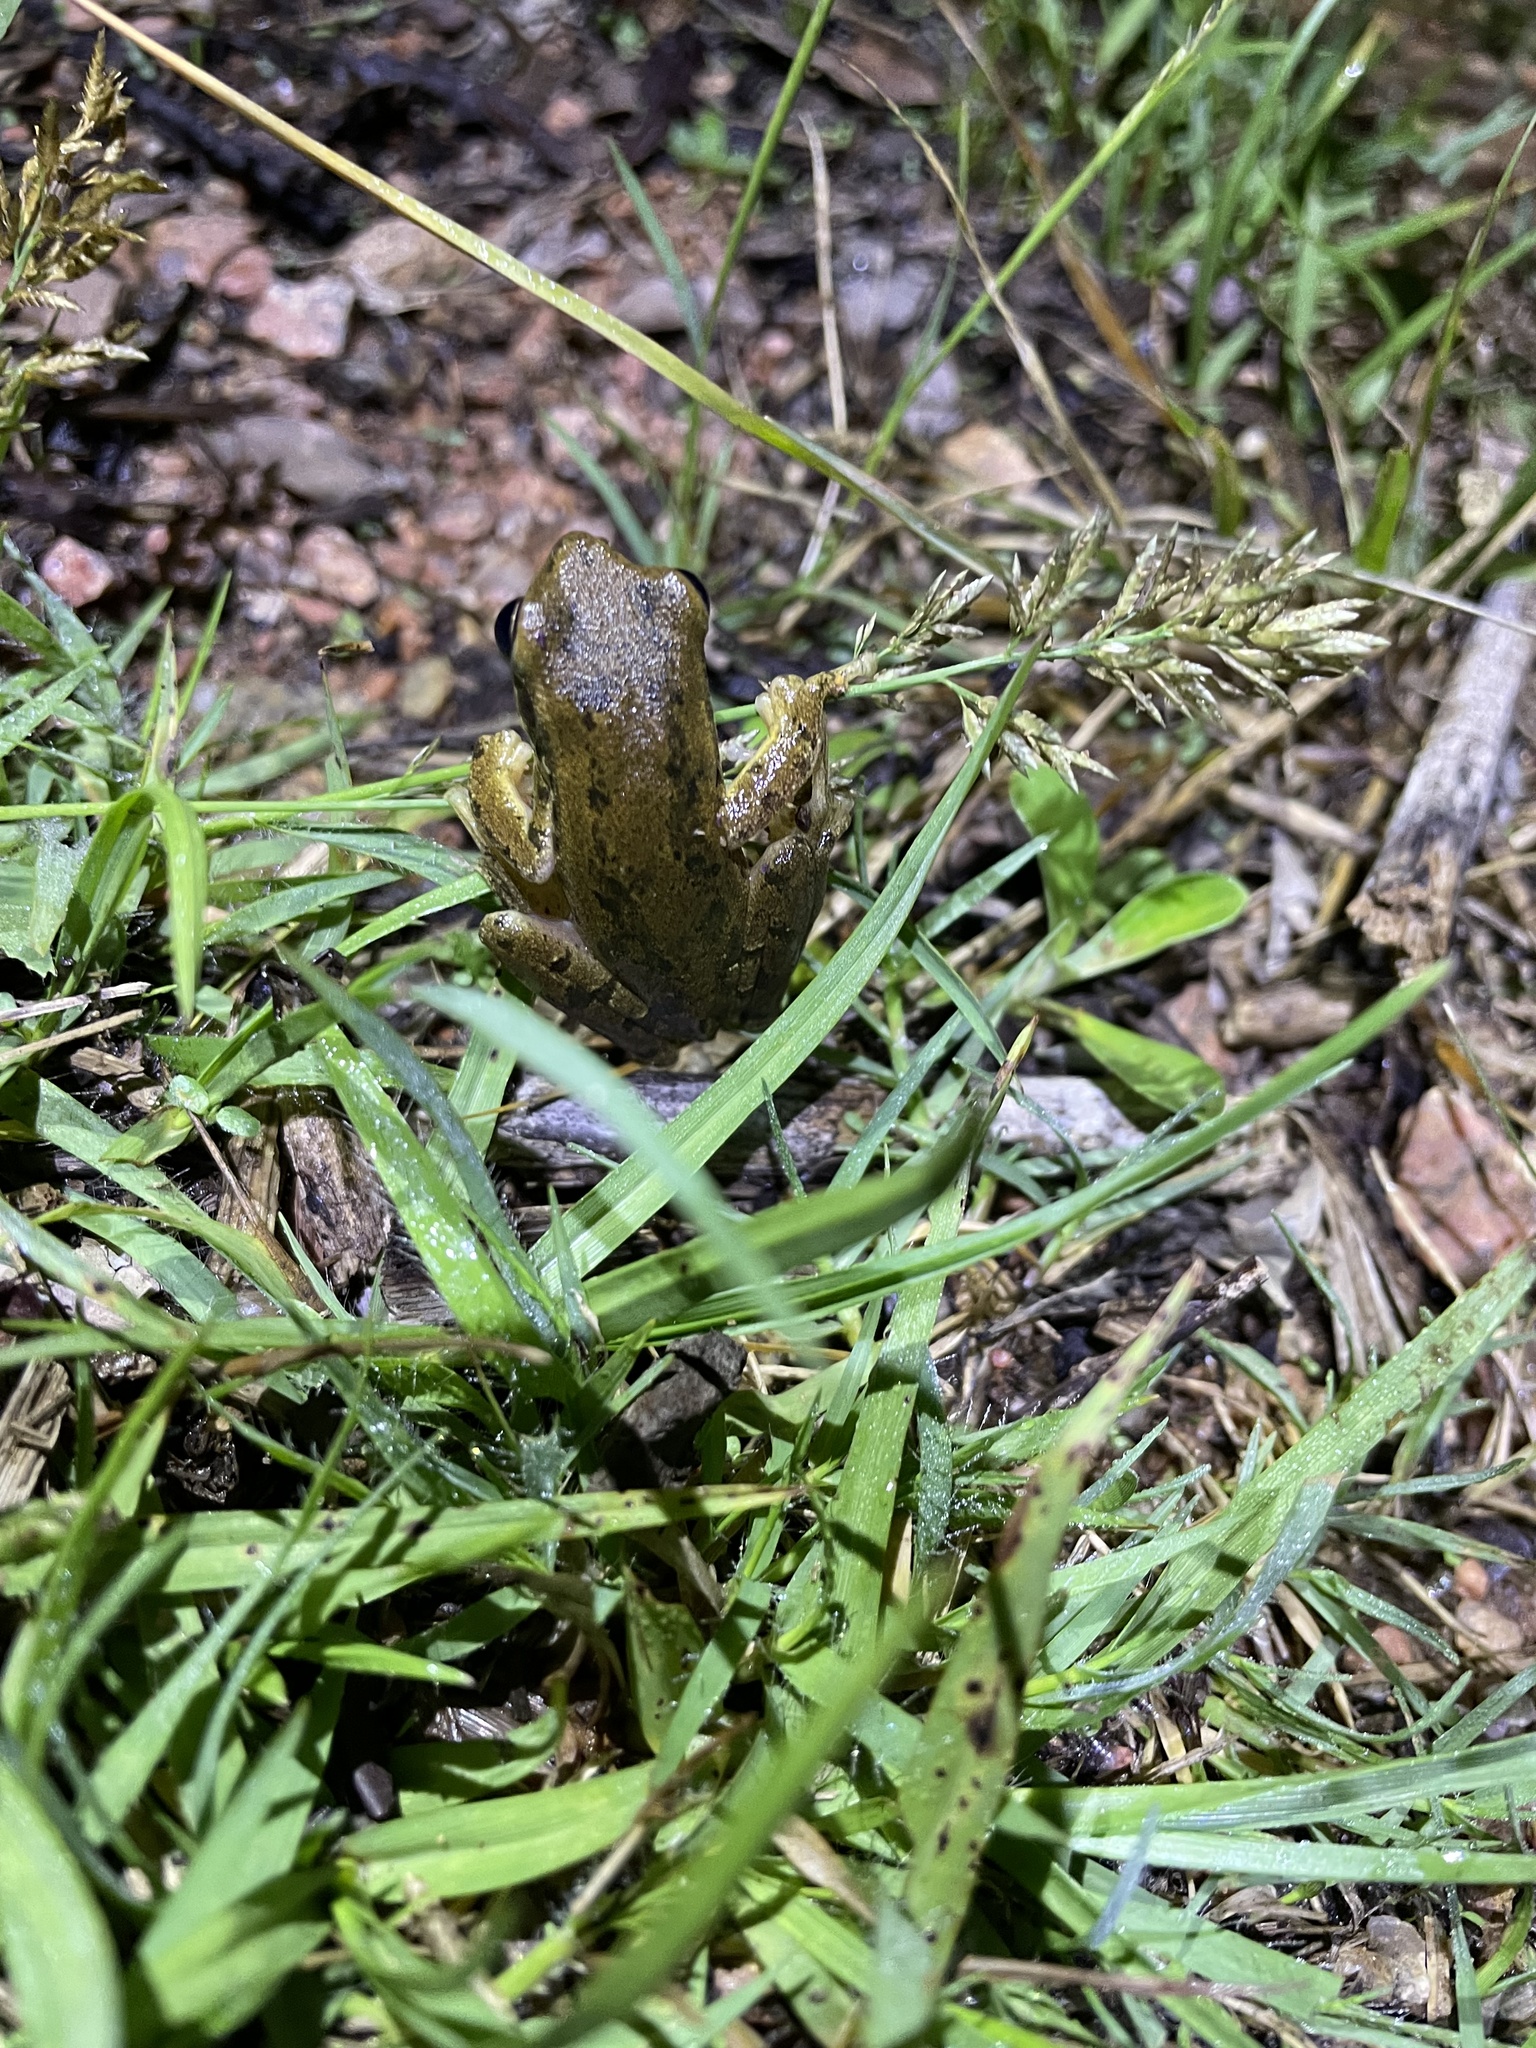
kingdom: Animalia
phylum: Chordata
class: Amphibia
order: Anura
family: Hylidae
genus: Boana
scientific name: Boana pulchella
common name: Montevideo treefrog
